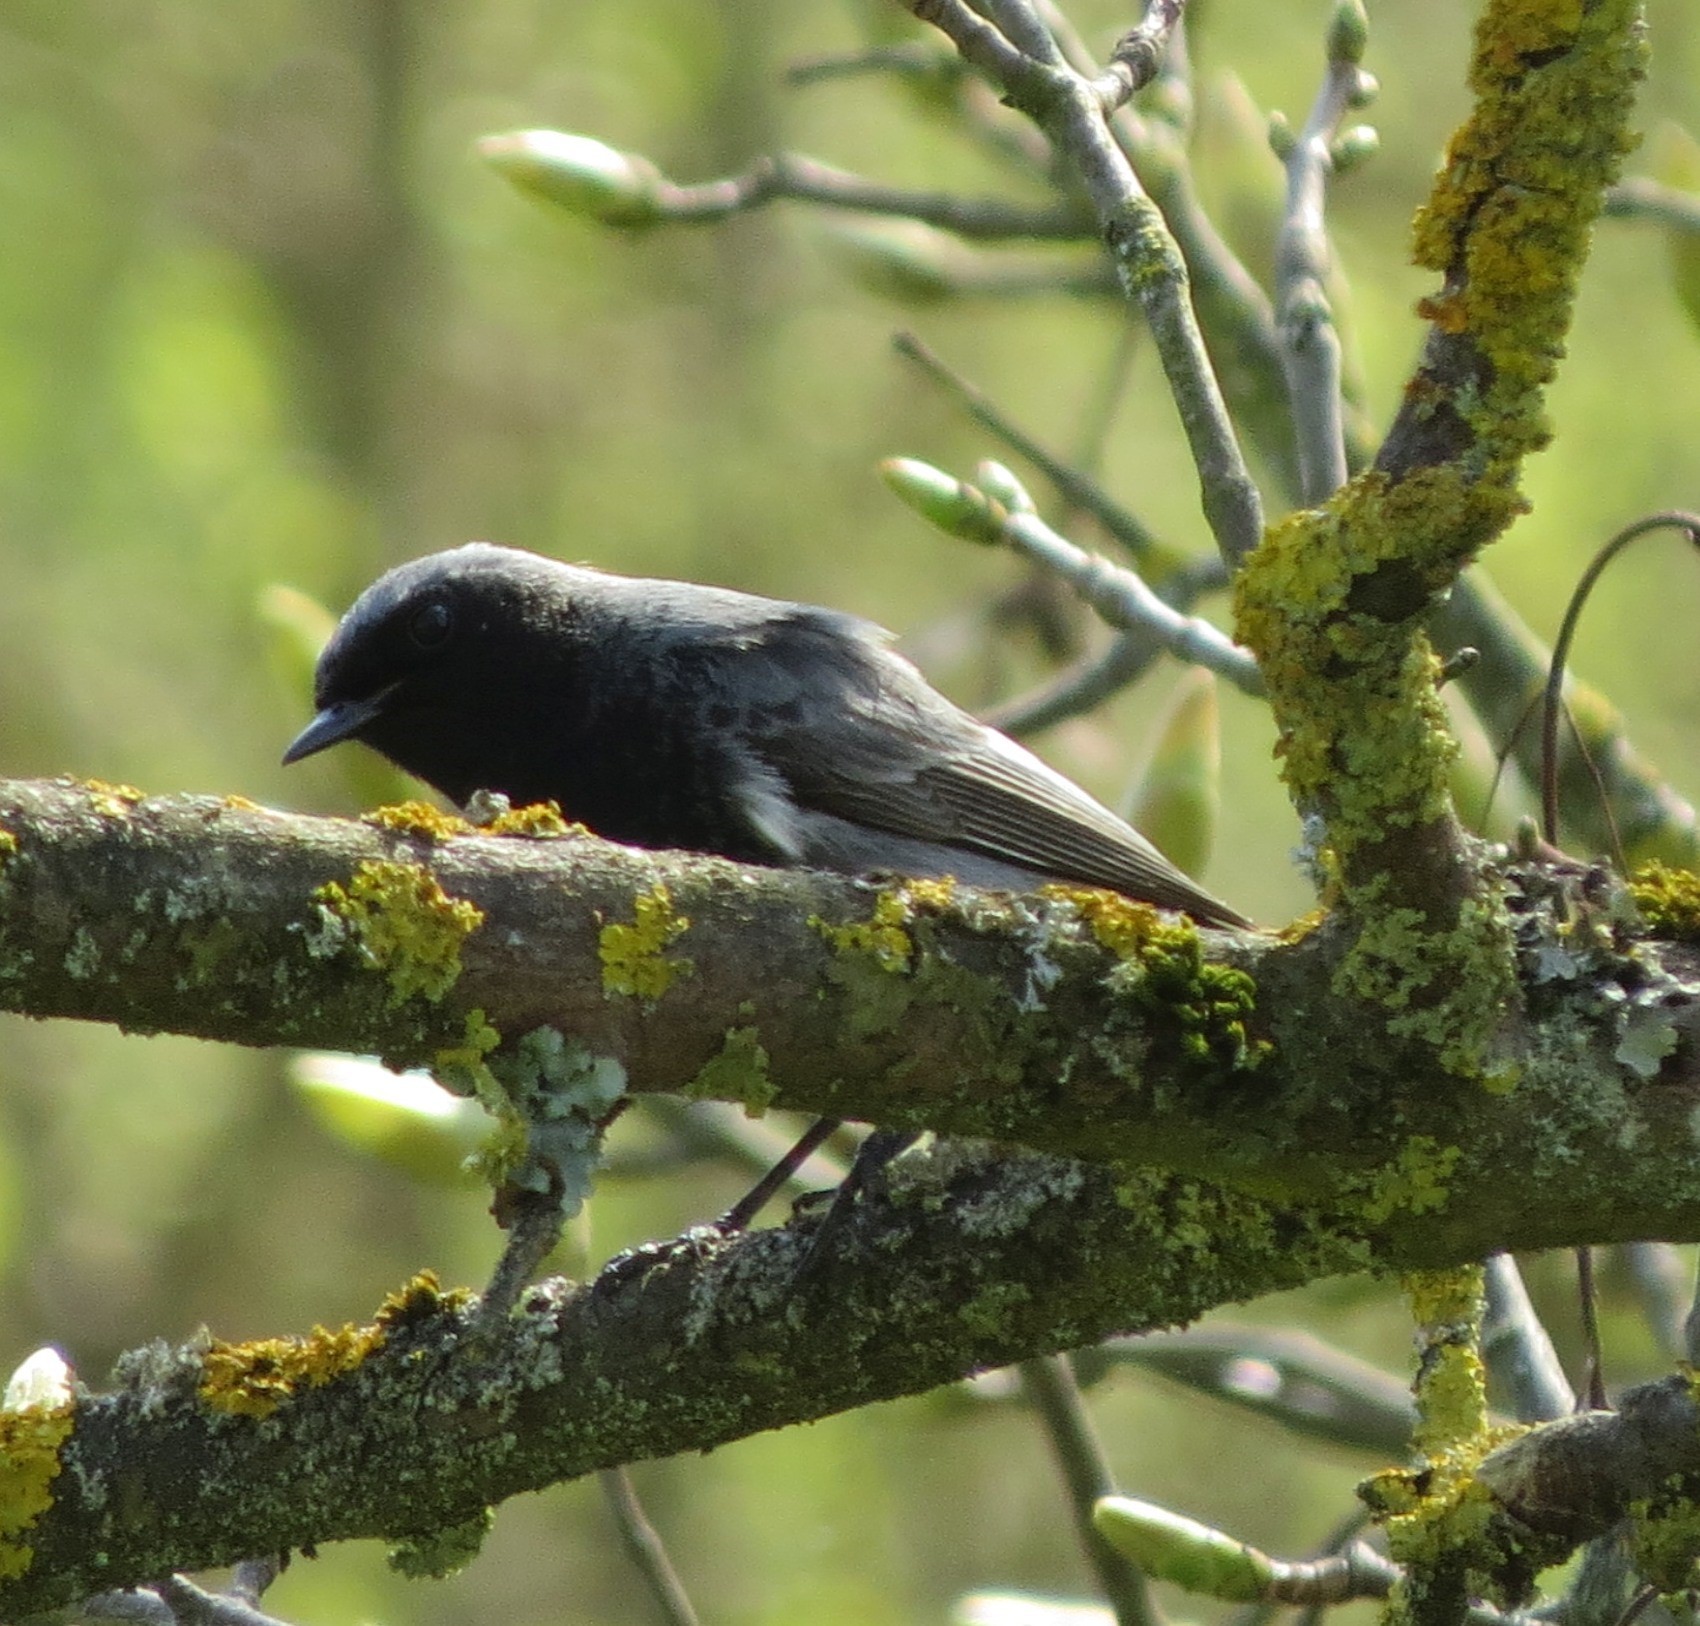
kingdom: Animalia
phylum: Chordata
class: Aves
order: Passeriformes
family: Muscicapidae
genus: Phoenicurus
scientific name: Phoenicurus ochruros
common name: Black redstart
